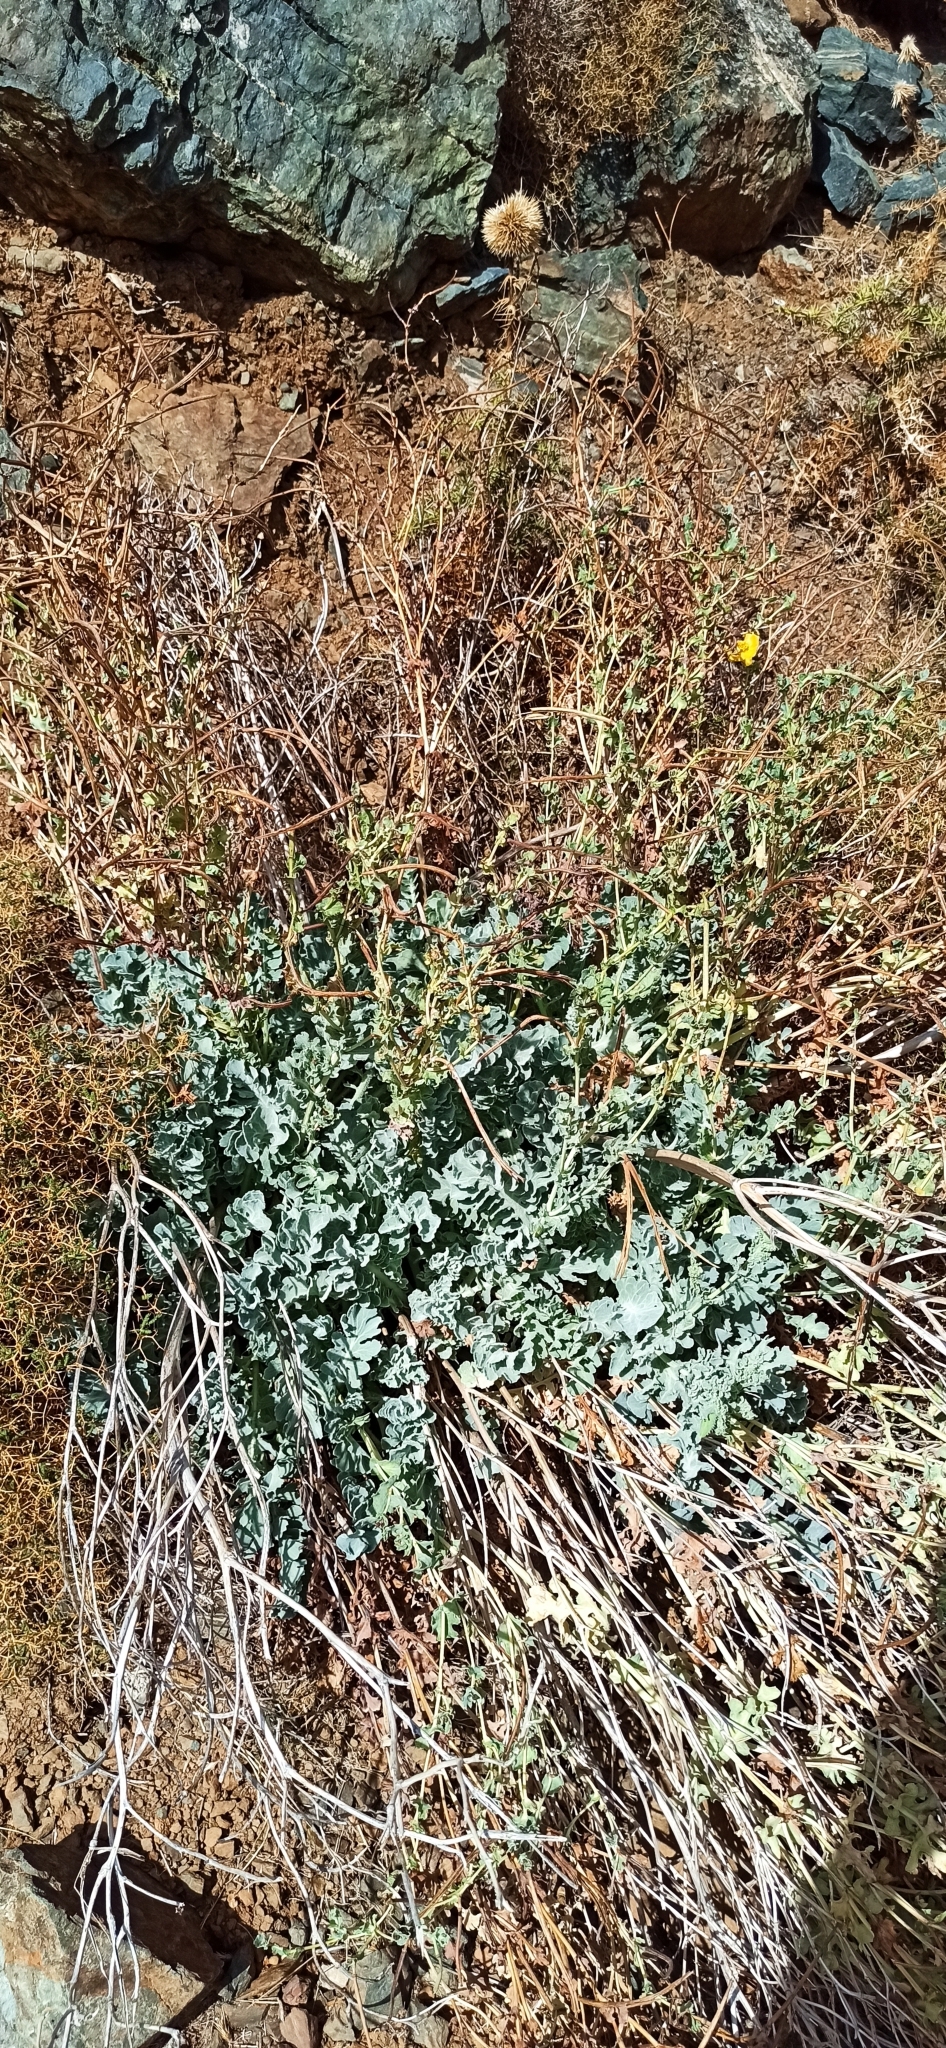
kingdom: Plantae
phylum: Tracheophyta
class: Magnoliopsida
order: Ranunculales
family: Papaveraceae
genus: Glaucium
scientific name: Glaucium flavum
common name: Yellow horned-poppy
